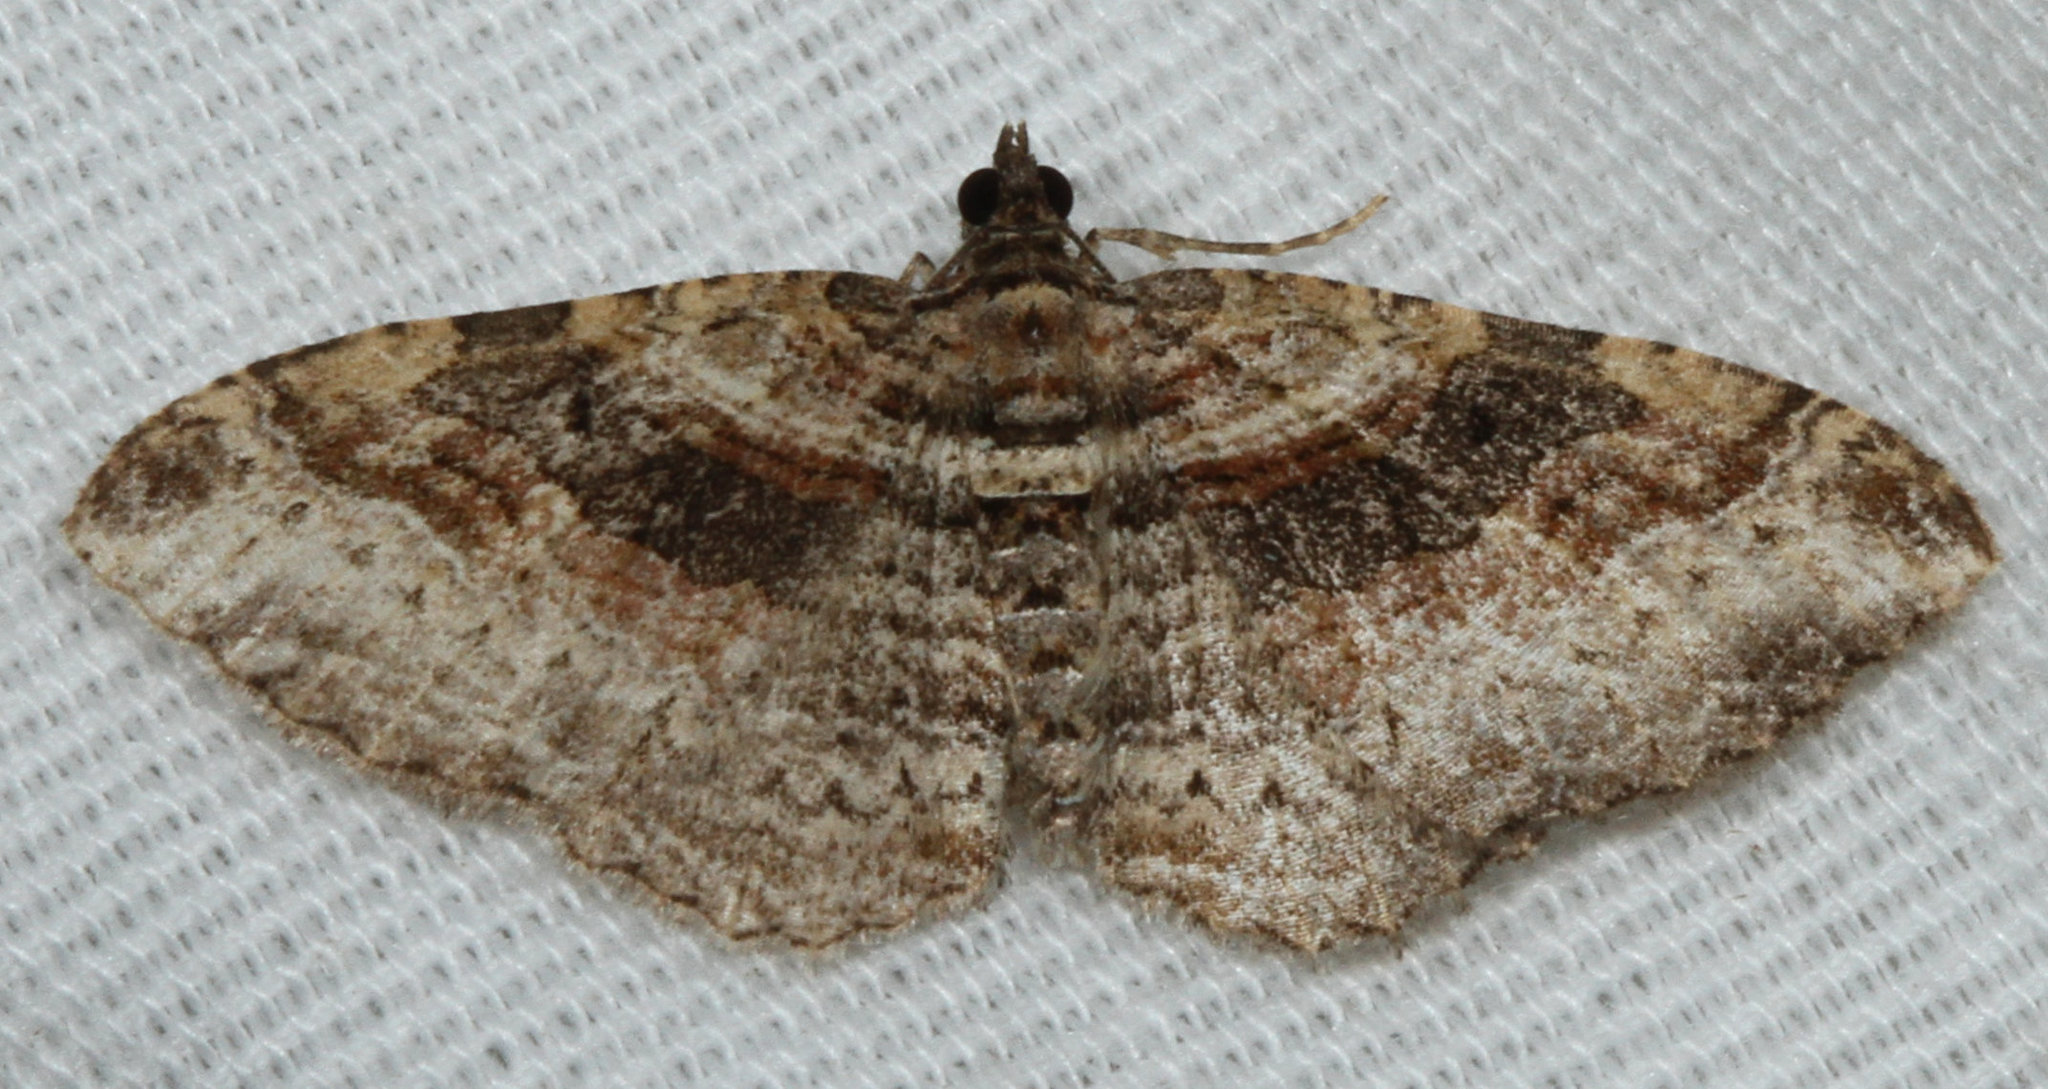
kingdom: Animalia
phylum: Arthropoda
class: Insecta
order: Lepidoptera
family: Geometridae
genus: Costaconvexa
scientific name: Costaconvexa centrostrigaria
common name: Bent-line carpet
